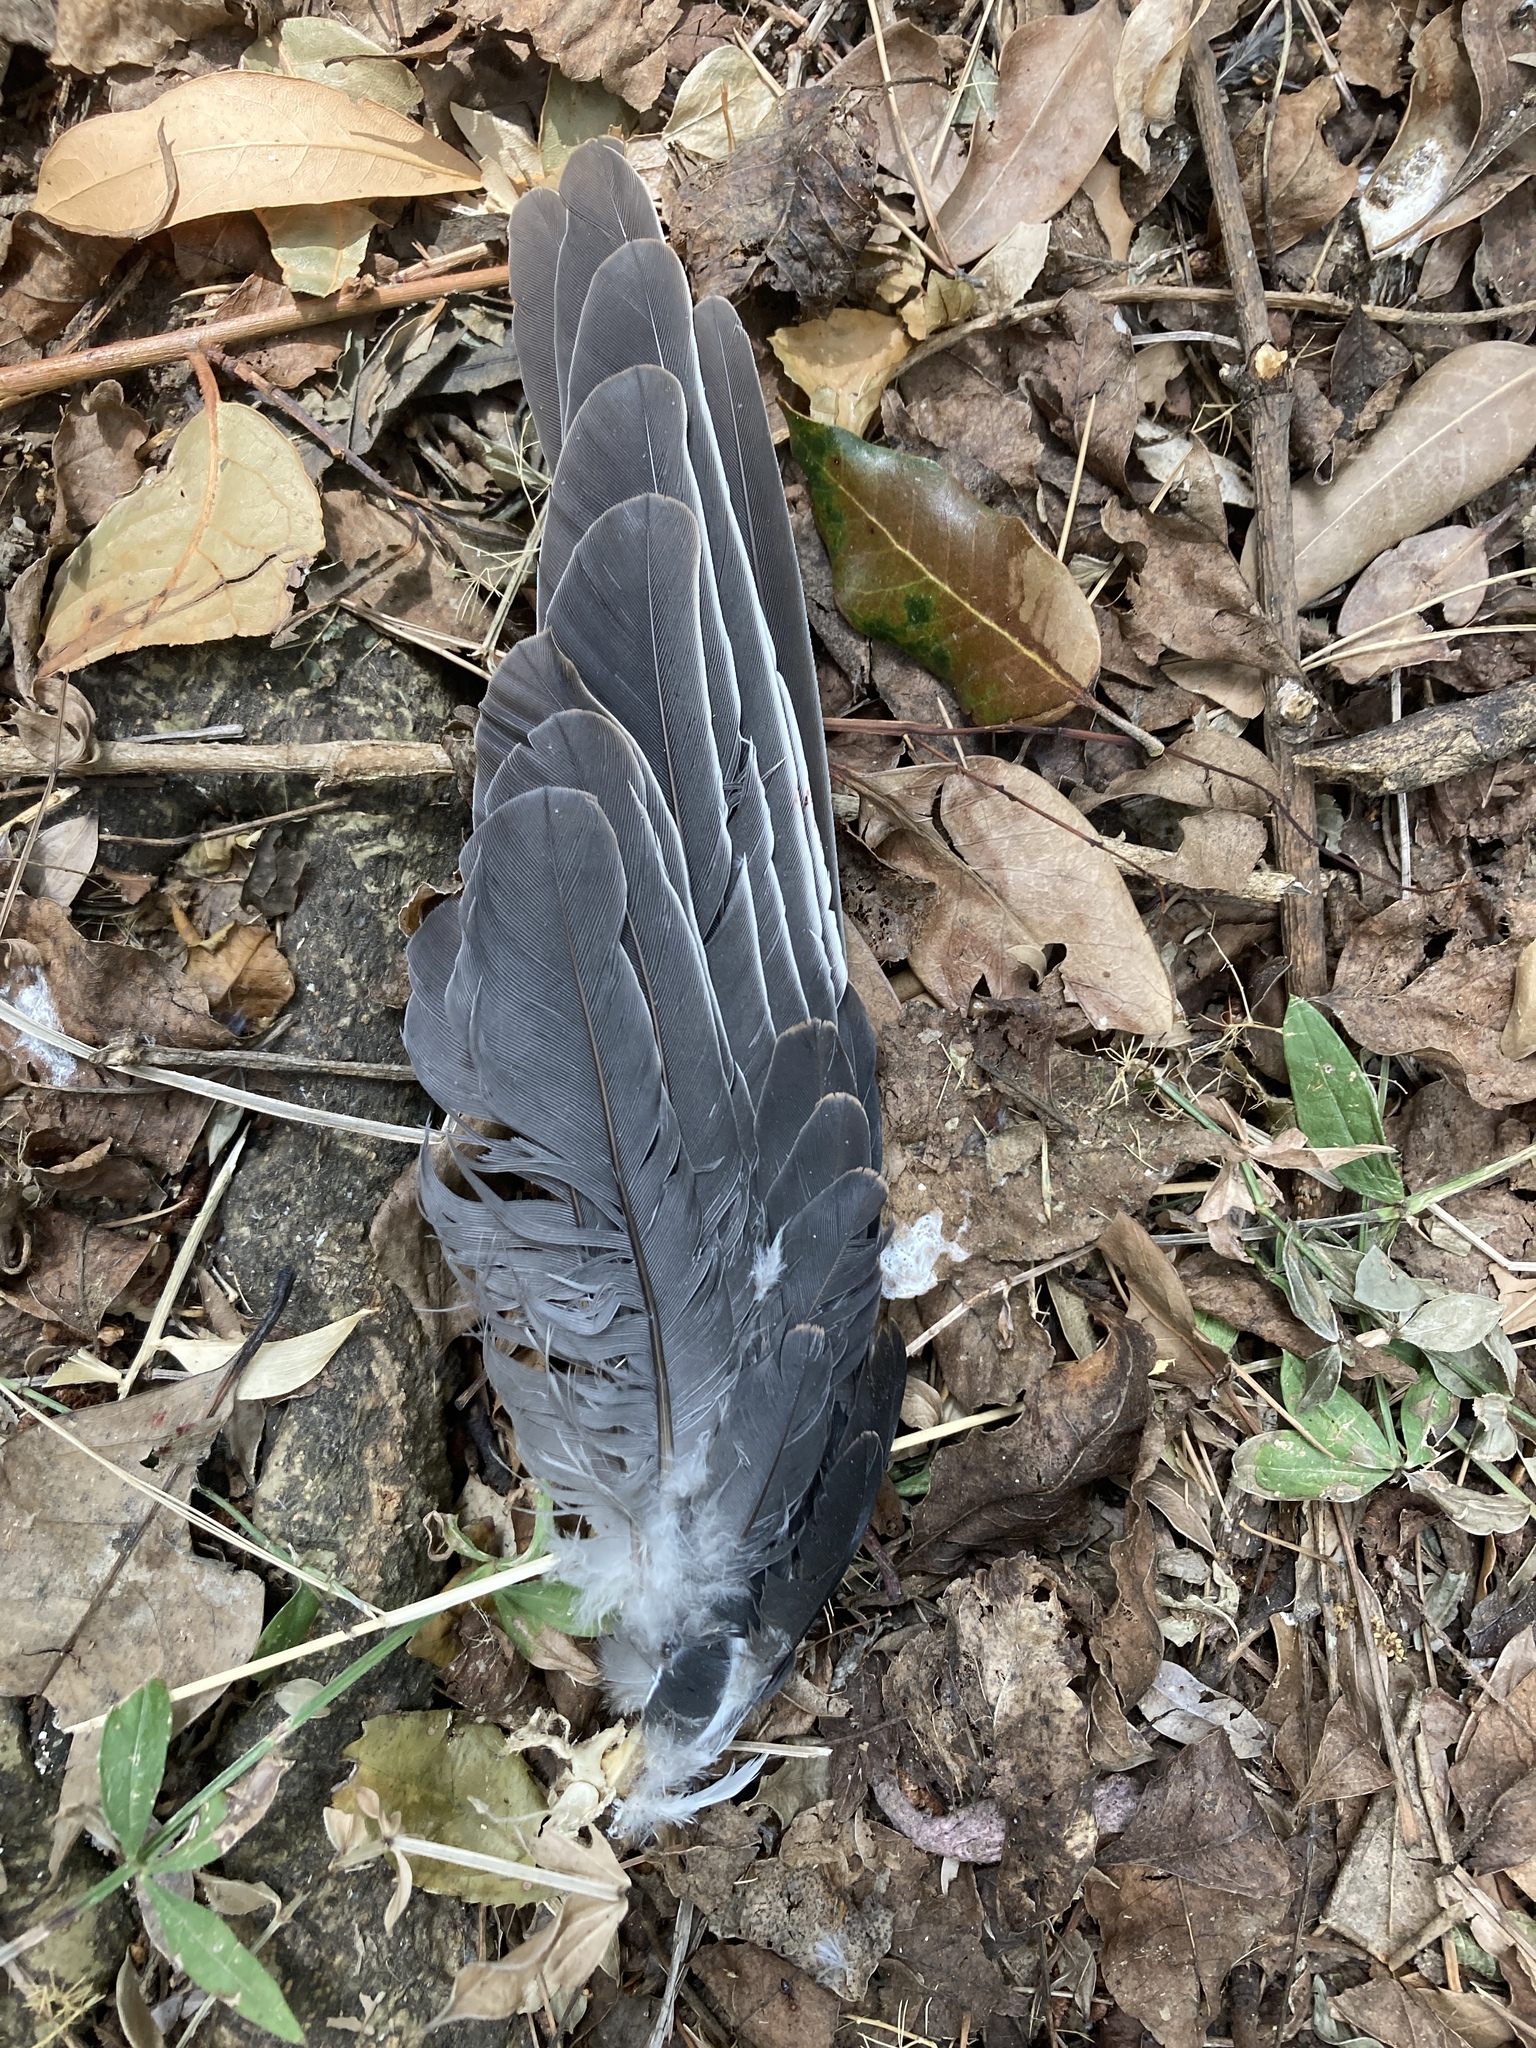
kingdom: Animalia
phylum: Chordata
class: Aves
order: Columbiformes
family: Columbidae
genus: Columba
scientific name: Columba palumbus
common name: Common wood pigeon
